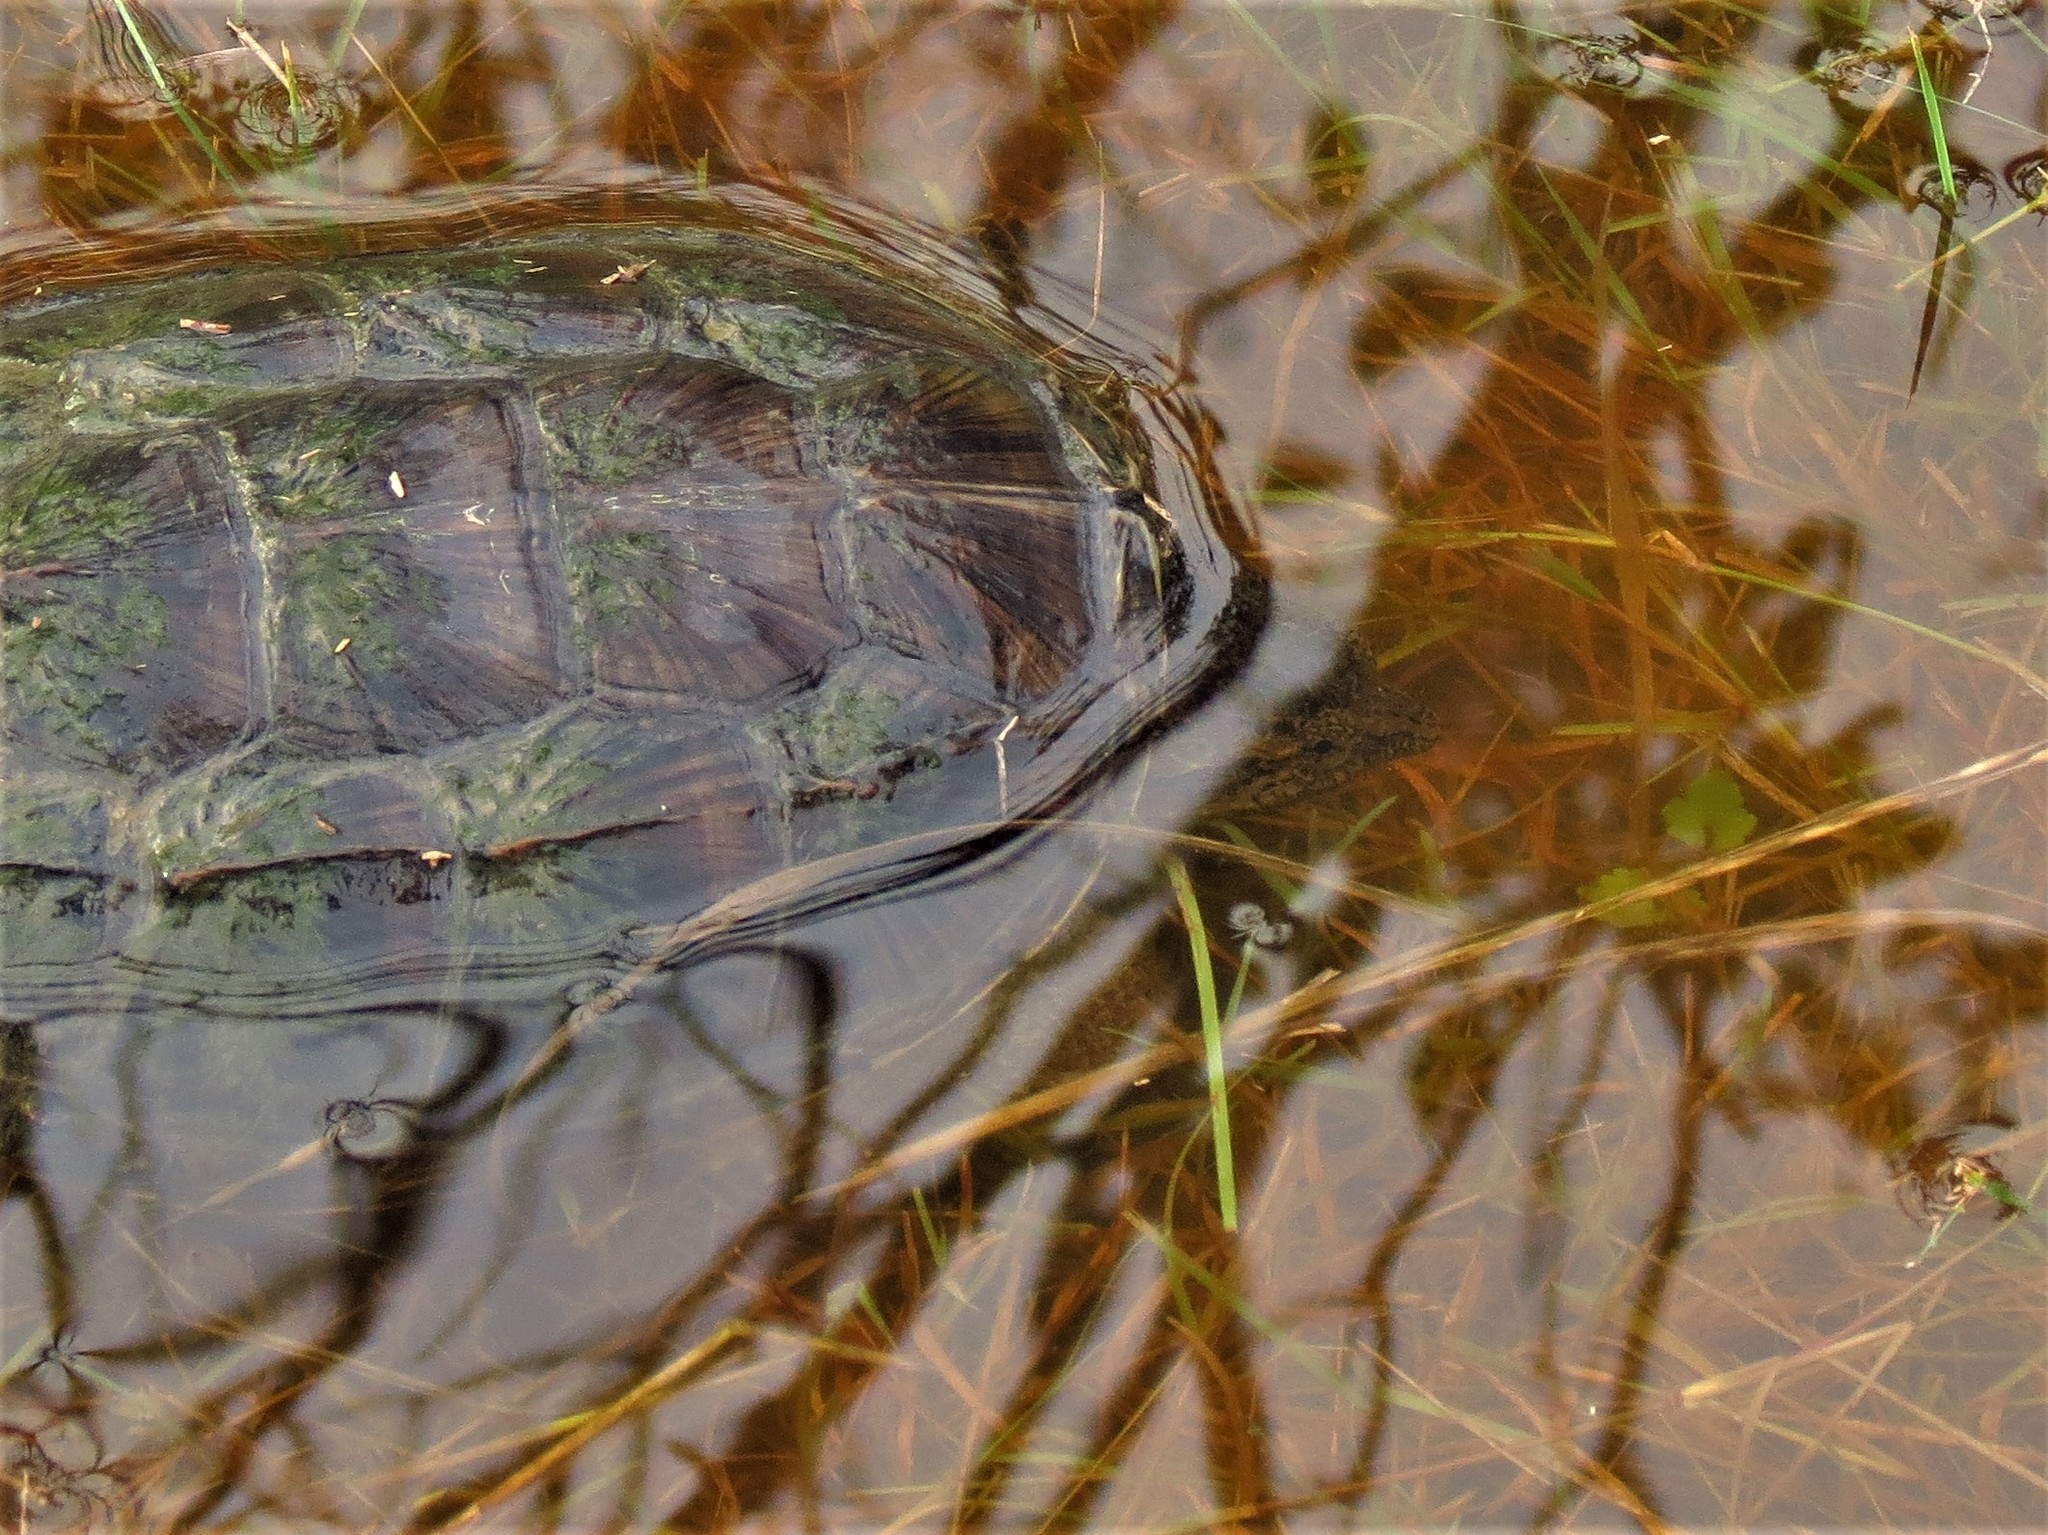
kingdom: Animalia
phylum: Chordata
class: Testudines
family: Chelydridae
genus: Chelydra
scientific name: Chelydra serpentina
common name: Common snapping turtle
